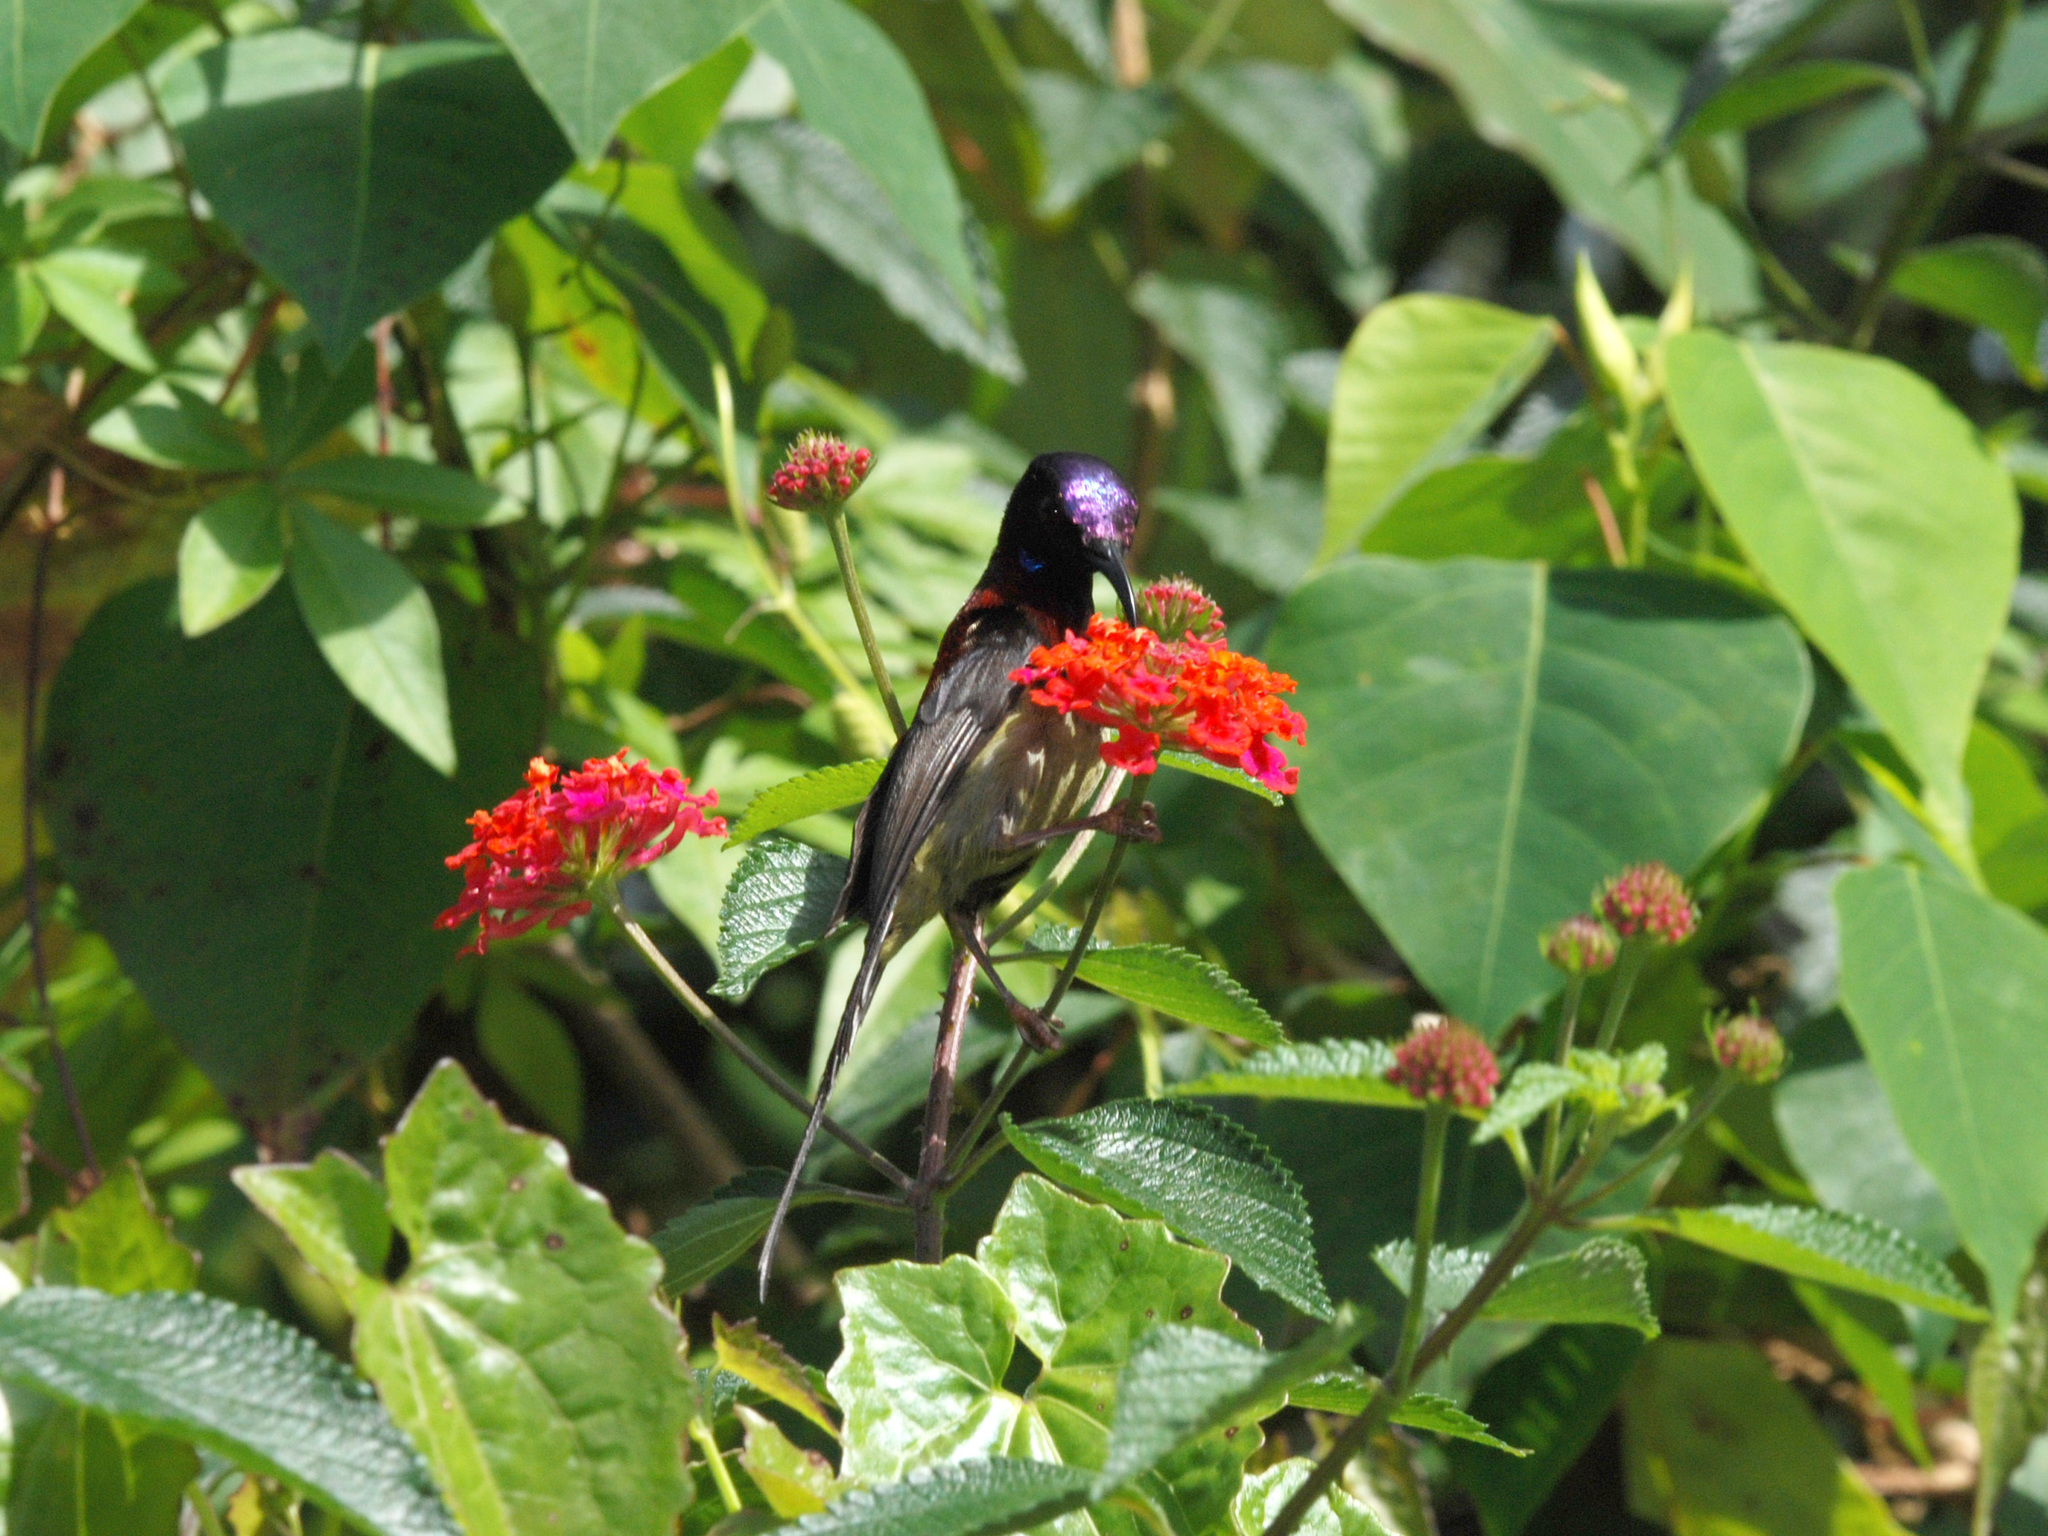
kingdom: Animalia
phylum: Chordata
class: Aves
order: Passeriformes
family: Nectariniidae
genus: Aethopyga
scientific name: Aethopyga saturata
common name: Black-throated sunbird
